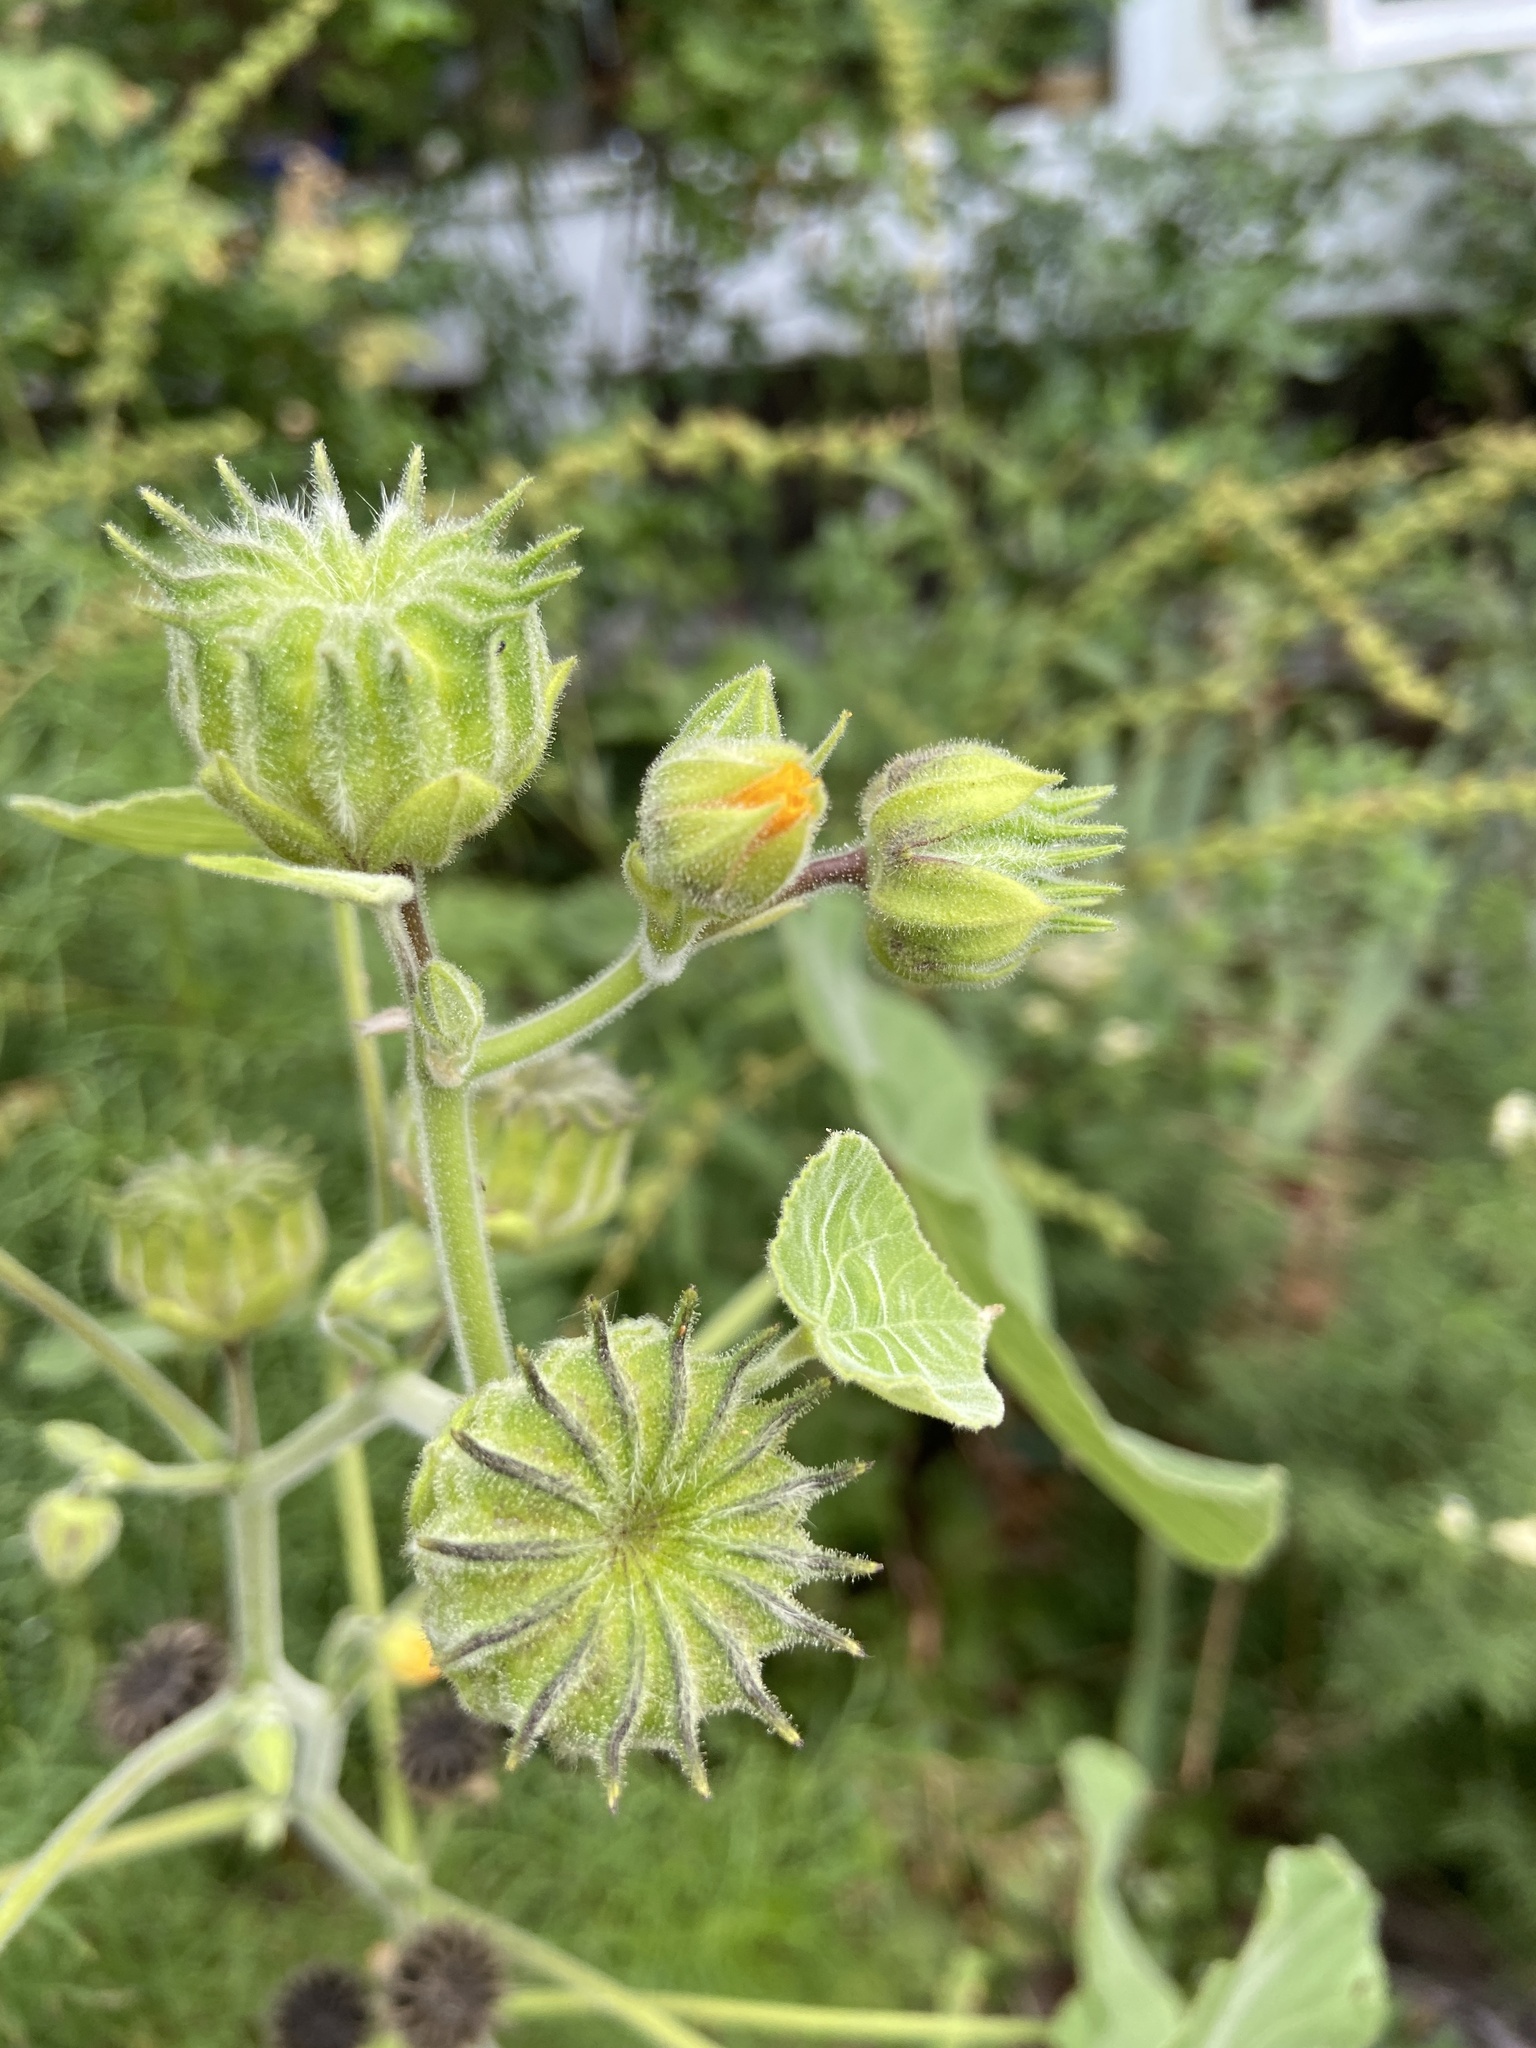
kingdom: Plantae
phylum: Tracheophyta
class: Magnoliopsida
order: Malvales
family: Malvaceae
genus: Abutilon
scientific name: Abutilon theophrasti
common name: Velvetleaf
